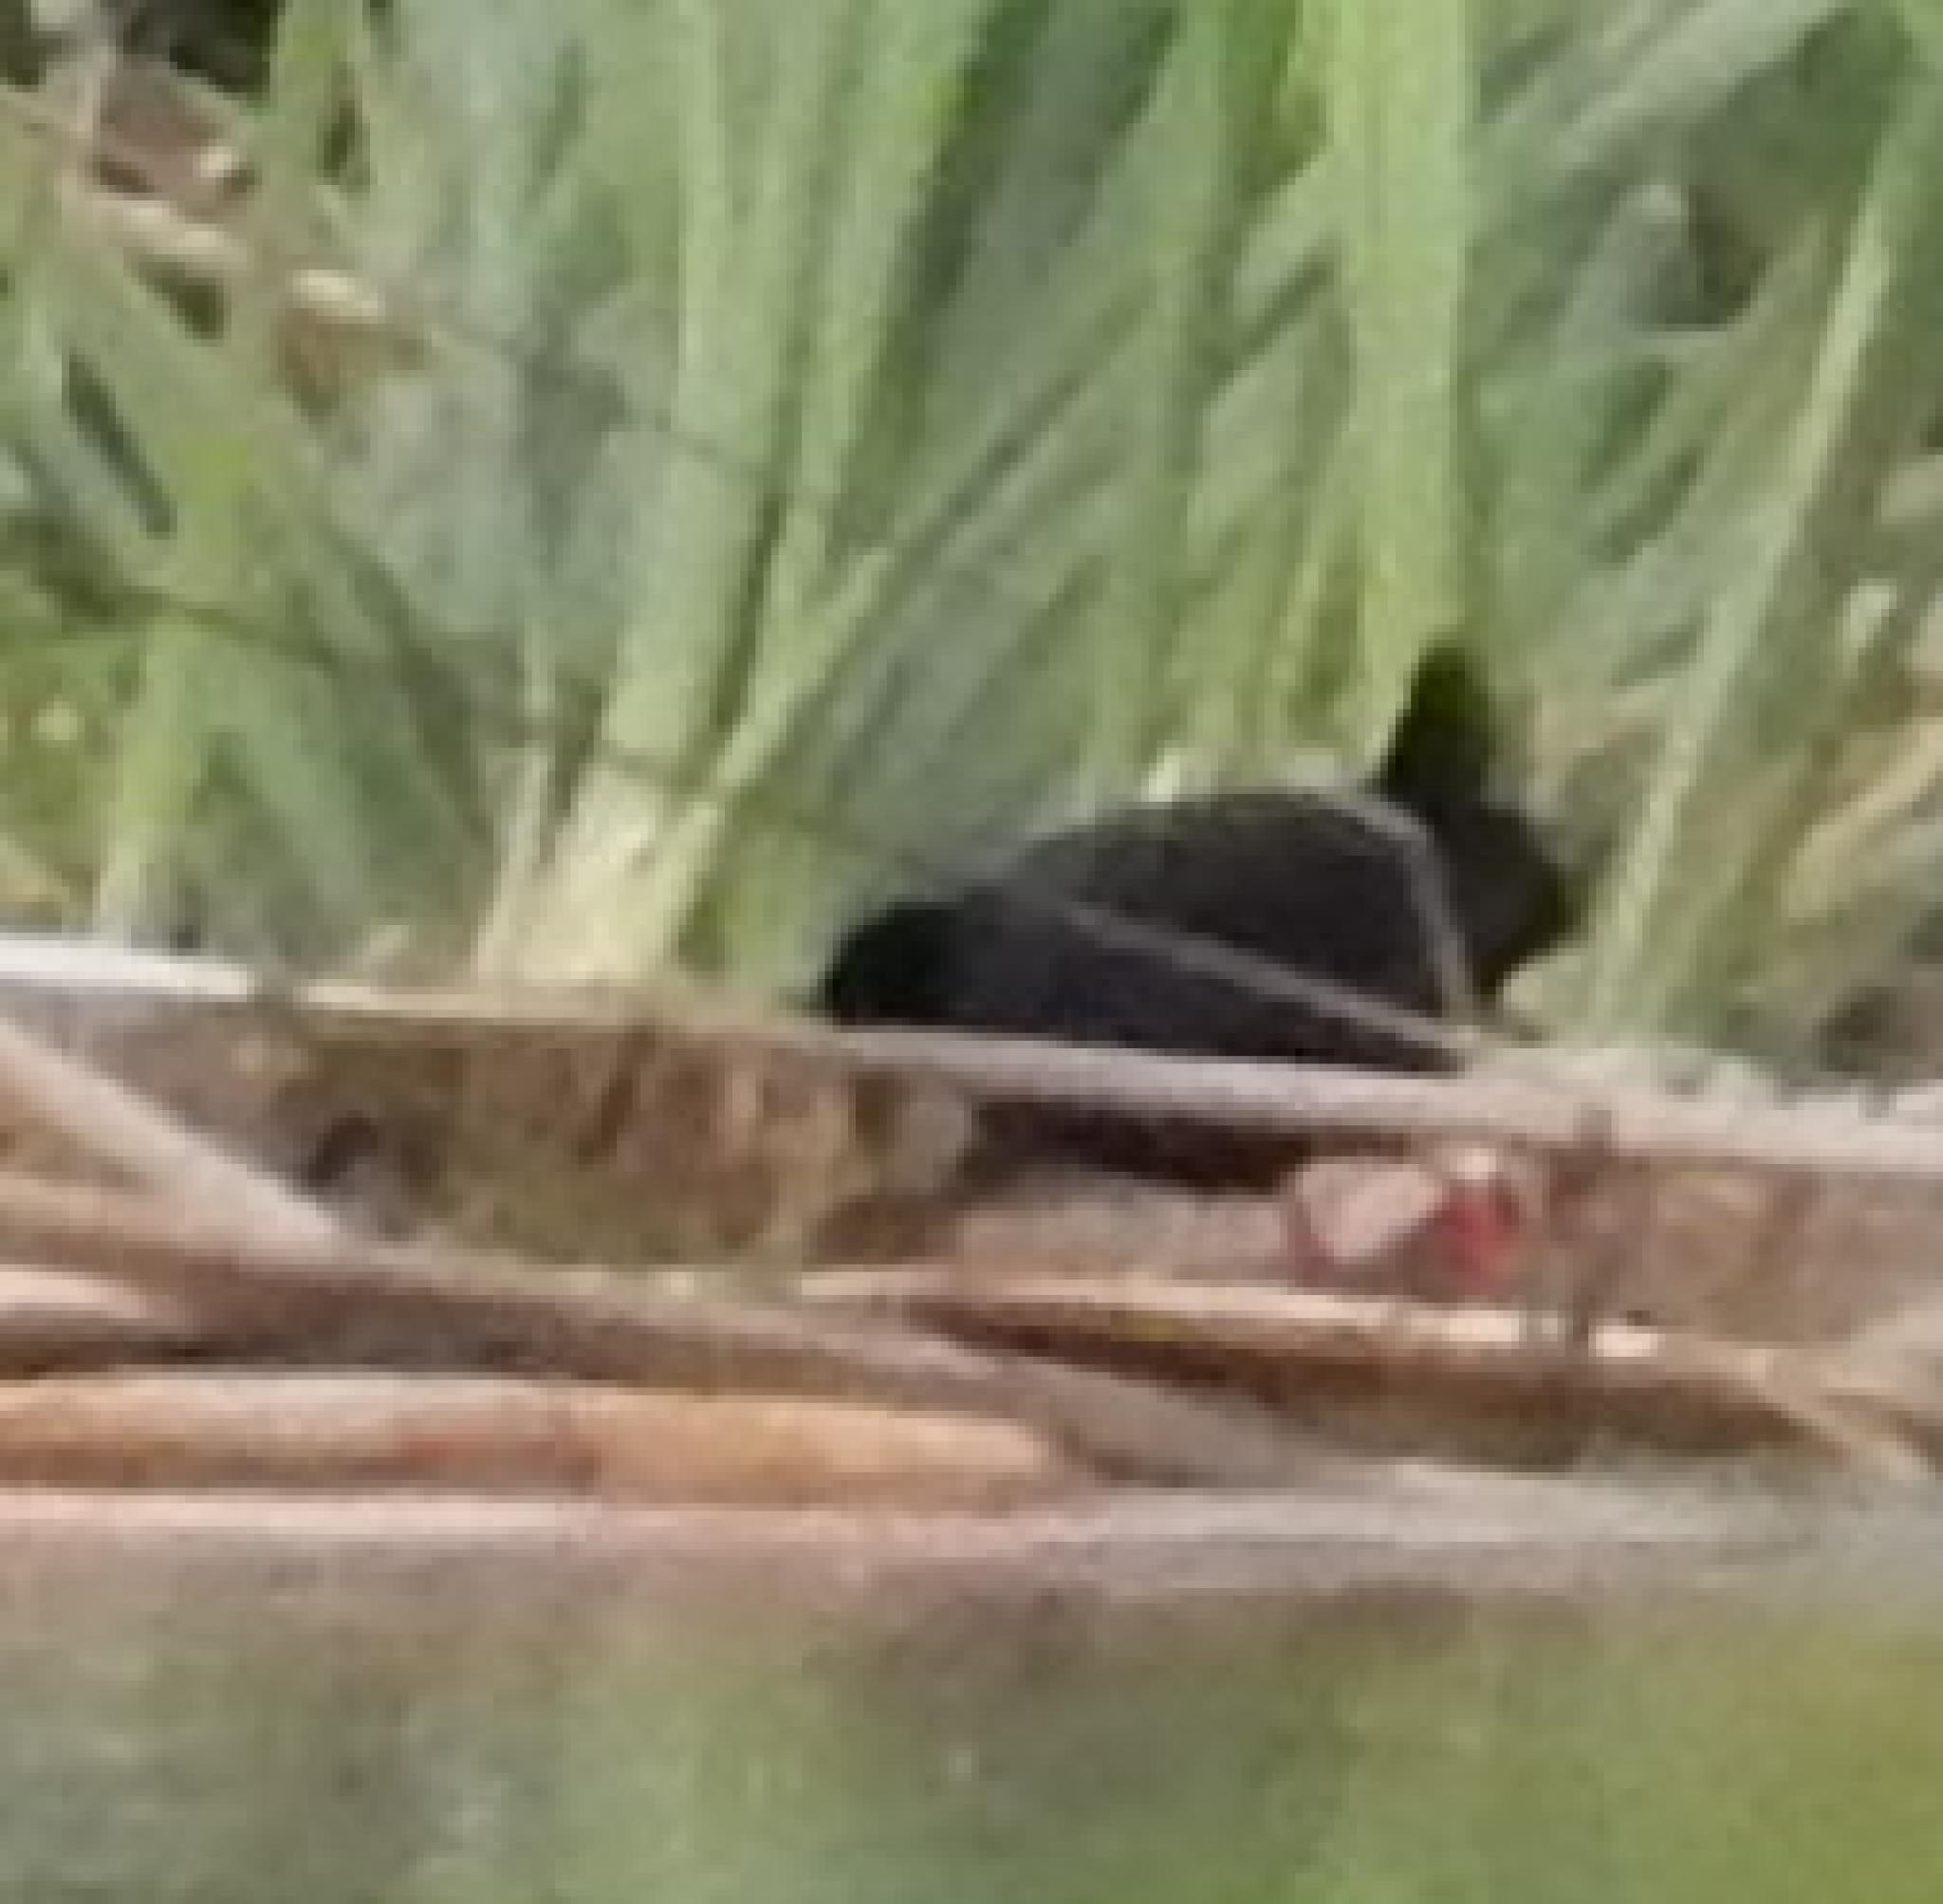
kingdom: Animalia
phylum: Chordata
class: Aves
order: Gruiformes
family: Rallidae
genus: Amaurornis
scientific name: Amaurornis flavirostra
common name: Black crake
